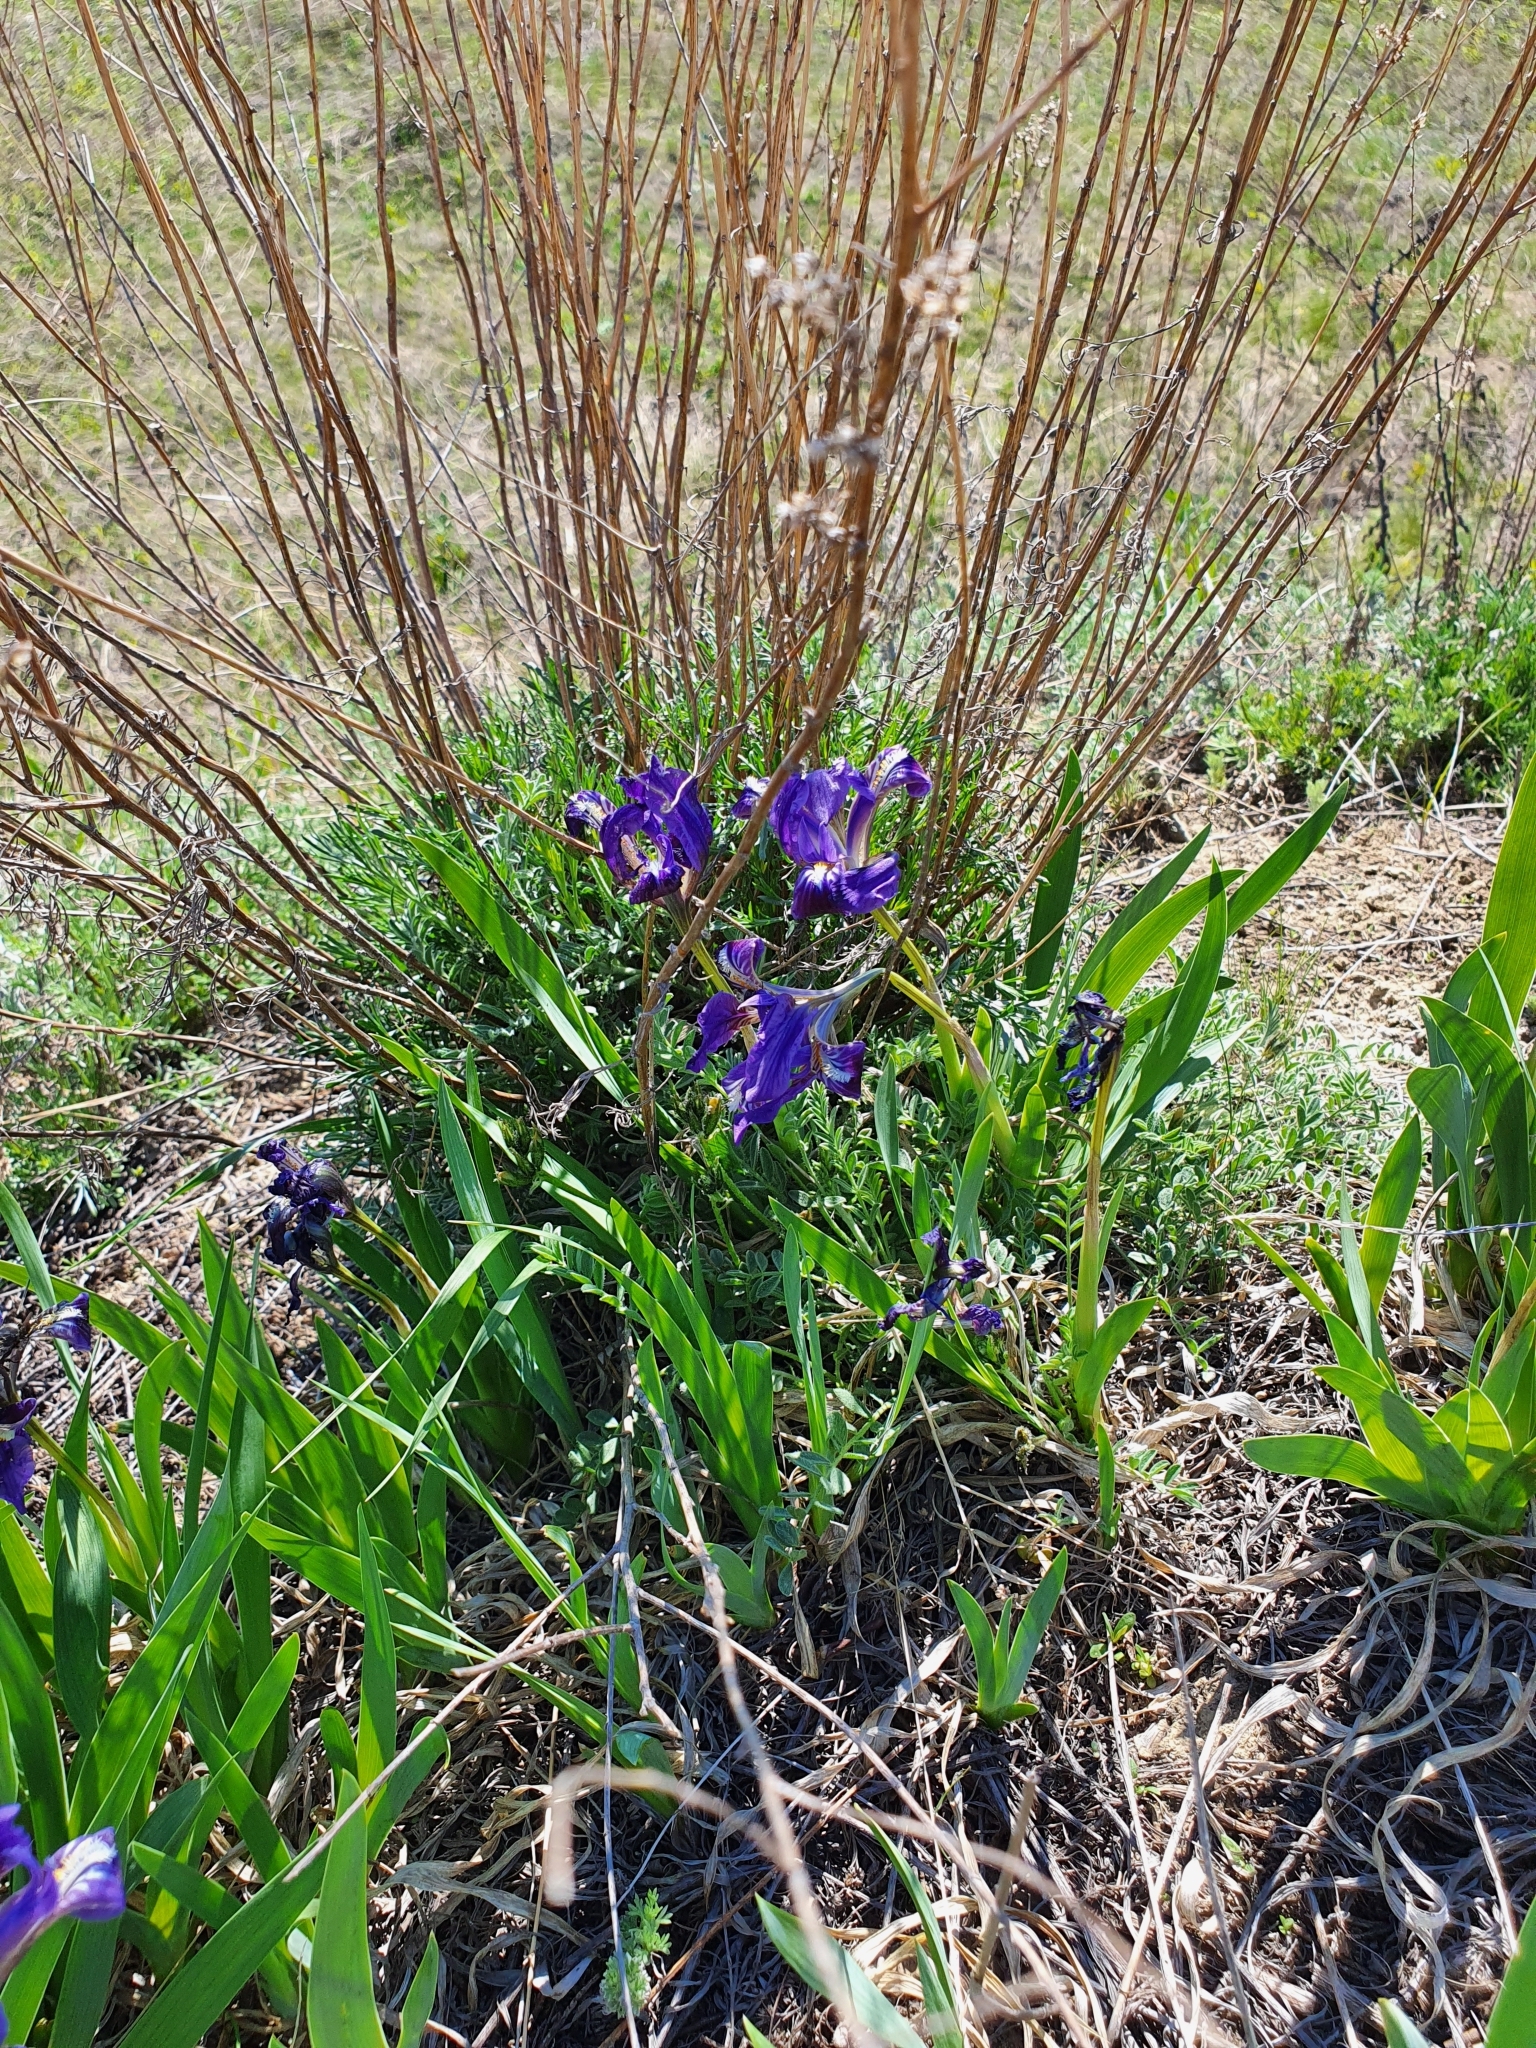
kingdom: Plantae
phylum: Tracheophyta
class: Liliopsida
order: Asparagales
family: Iridaceae
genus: Iris
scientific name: Iris pumila
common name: Dwarf iris
